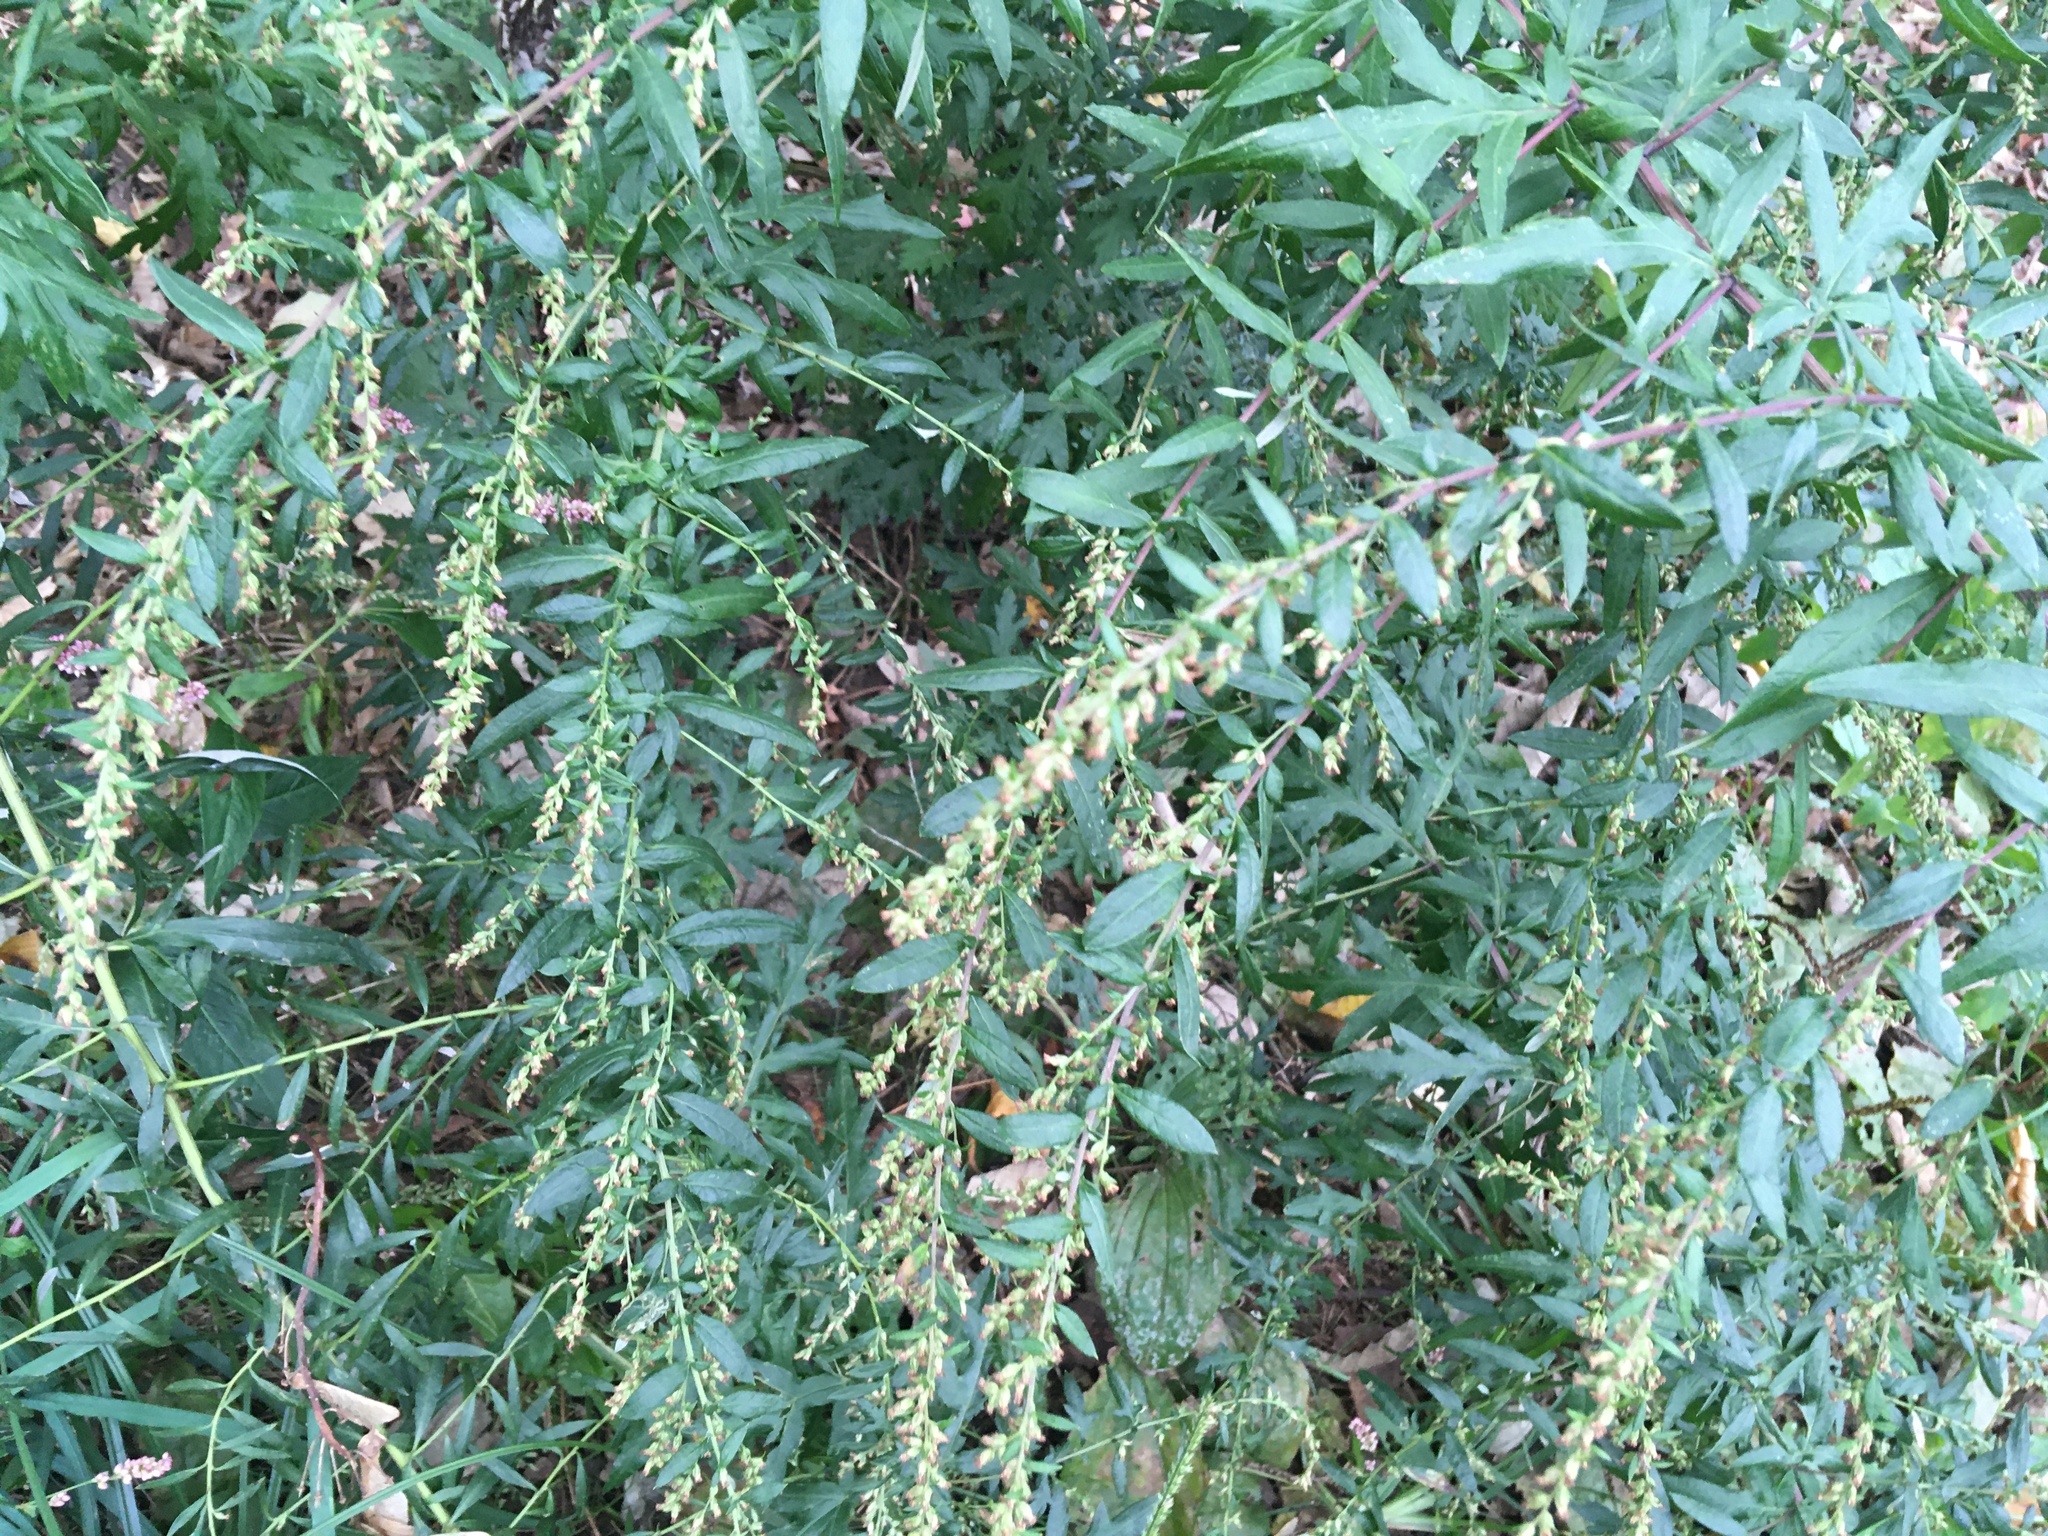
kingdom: Plantae
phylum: Tracheophyta
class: Magnoliopsida
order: Asterales
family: Asteraceae
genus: Artemisia
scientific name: Artemisia vulgaris
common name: Mugwort
